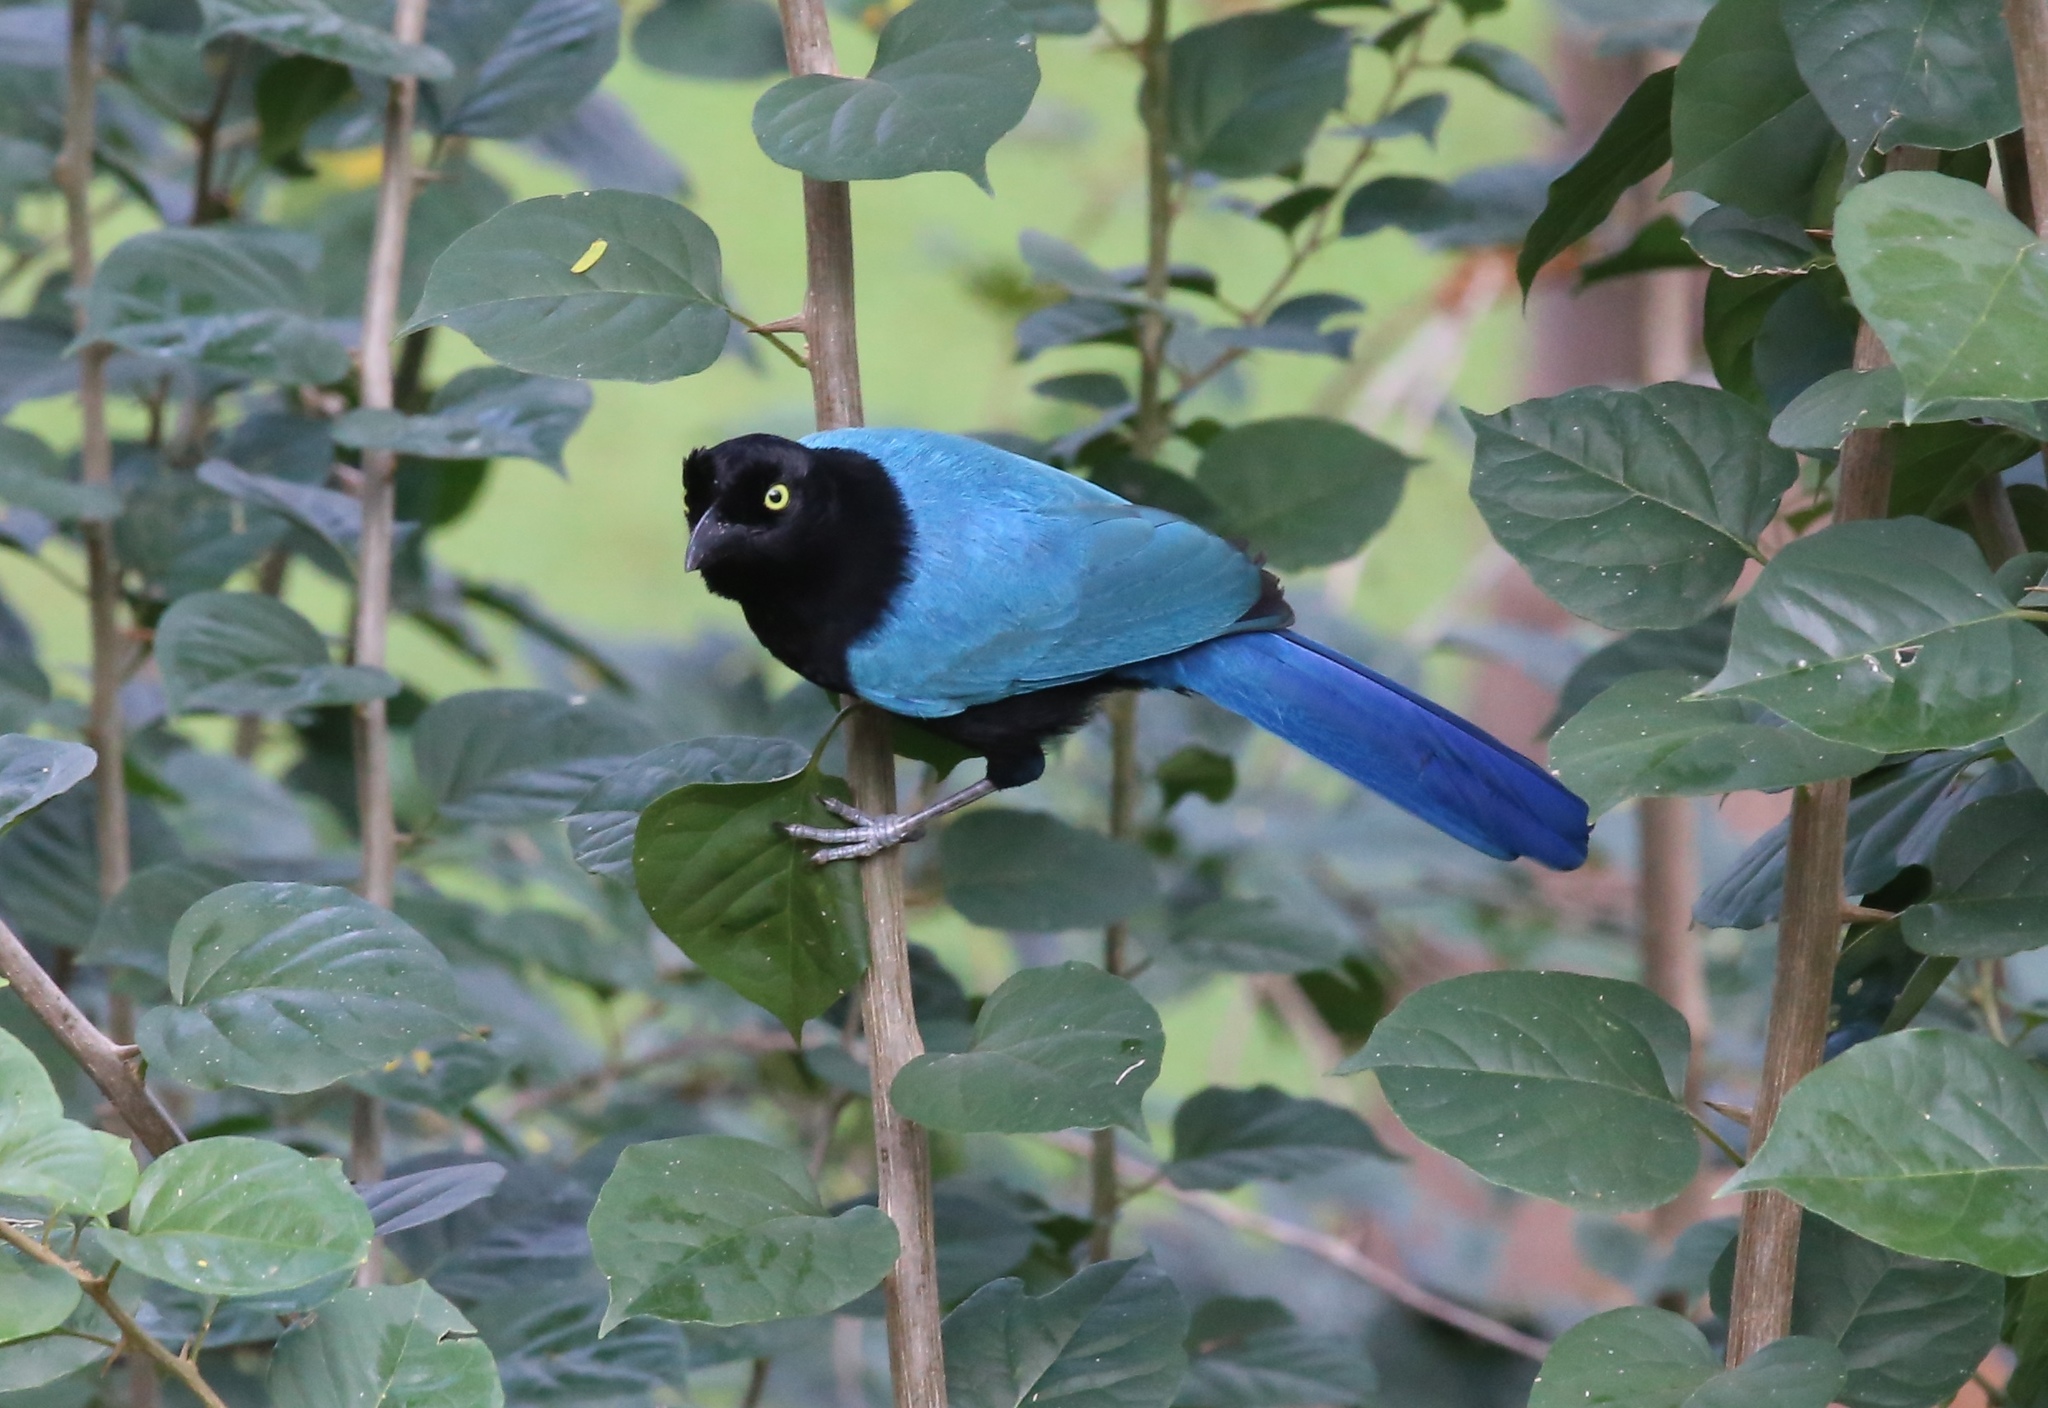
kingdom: Animalia
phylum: Chordata
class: Aves
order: Passeriformes
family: Corvidae
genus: Cyanocorax
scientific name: Cyanocorax sanblasianus
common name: San blas jay
